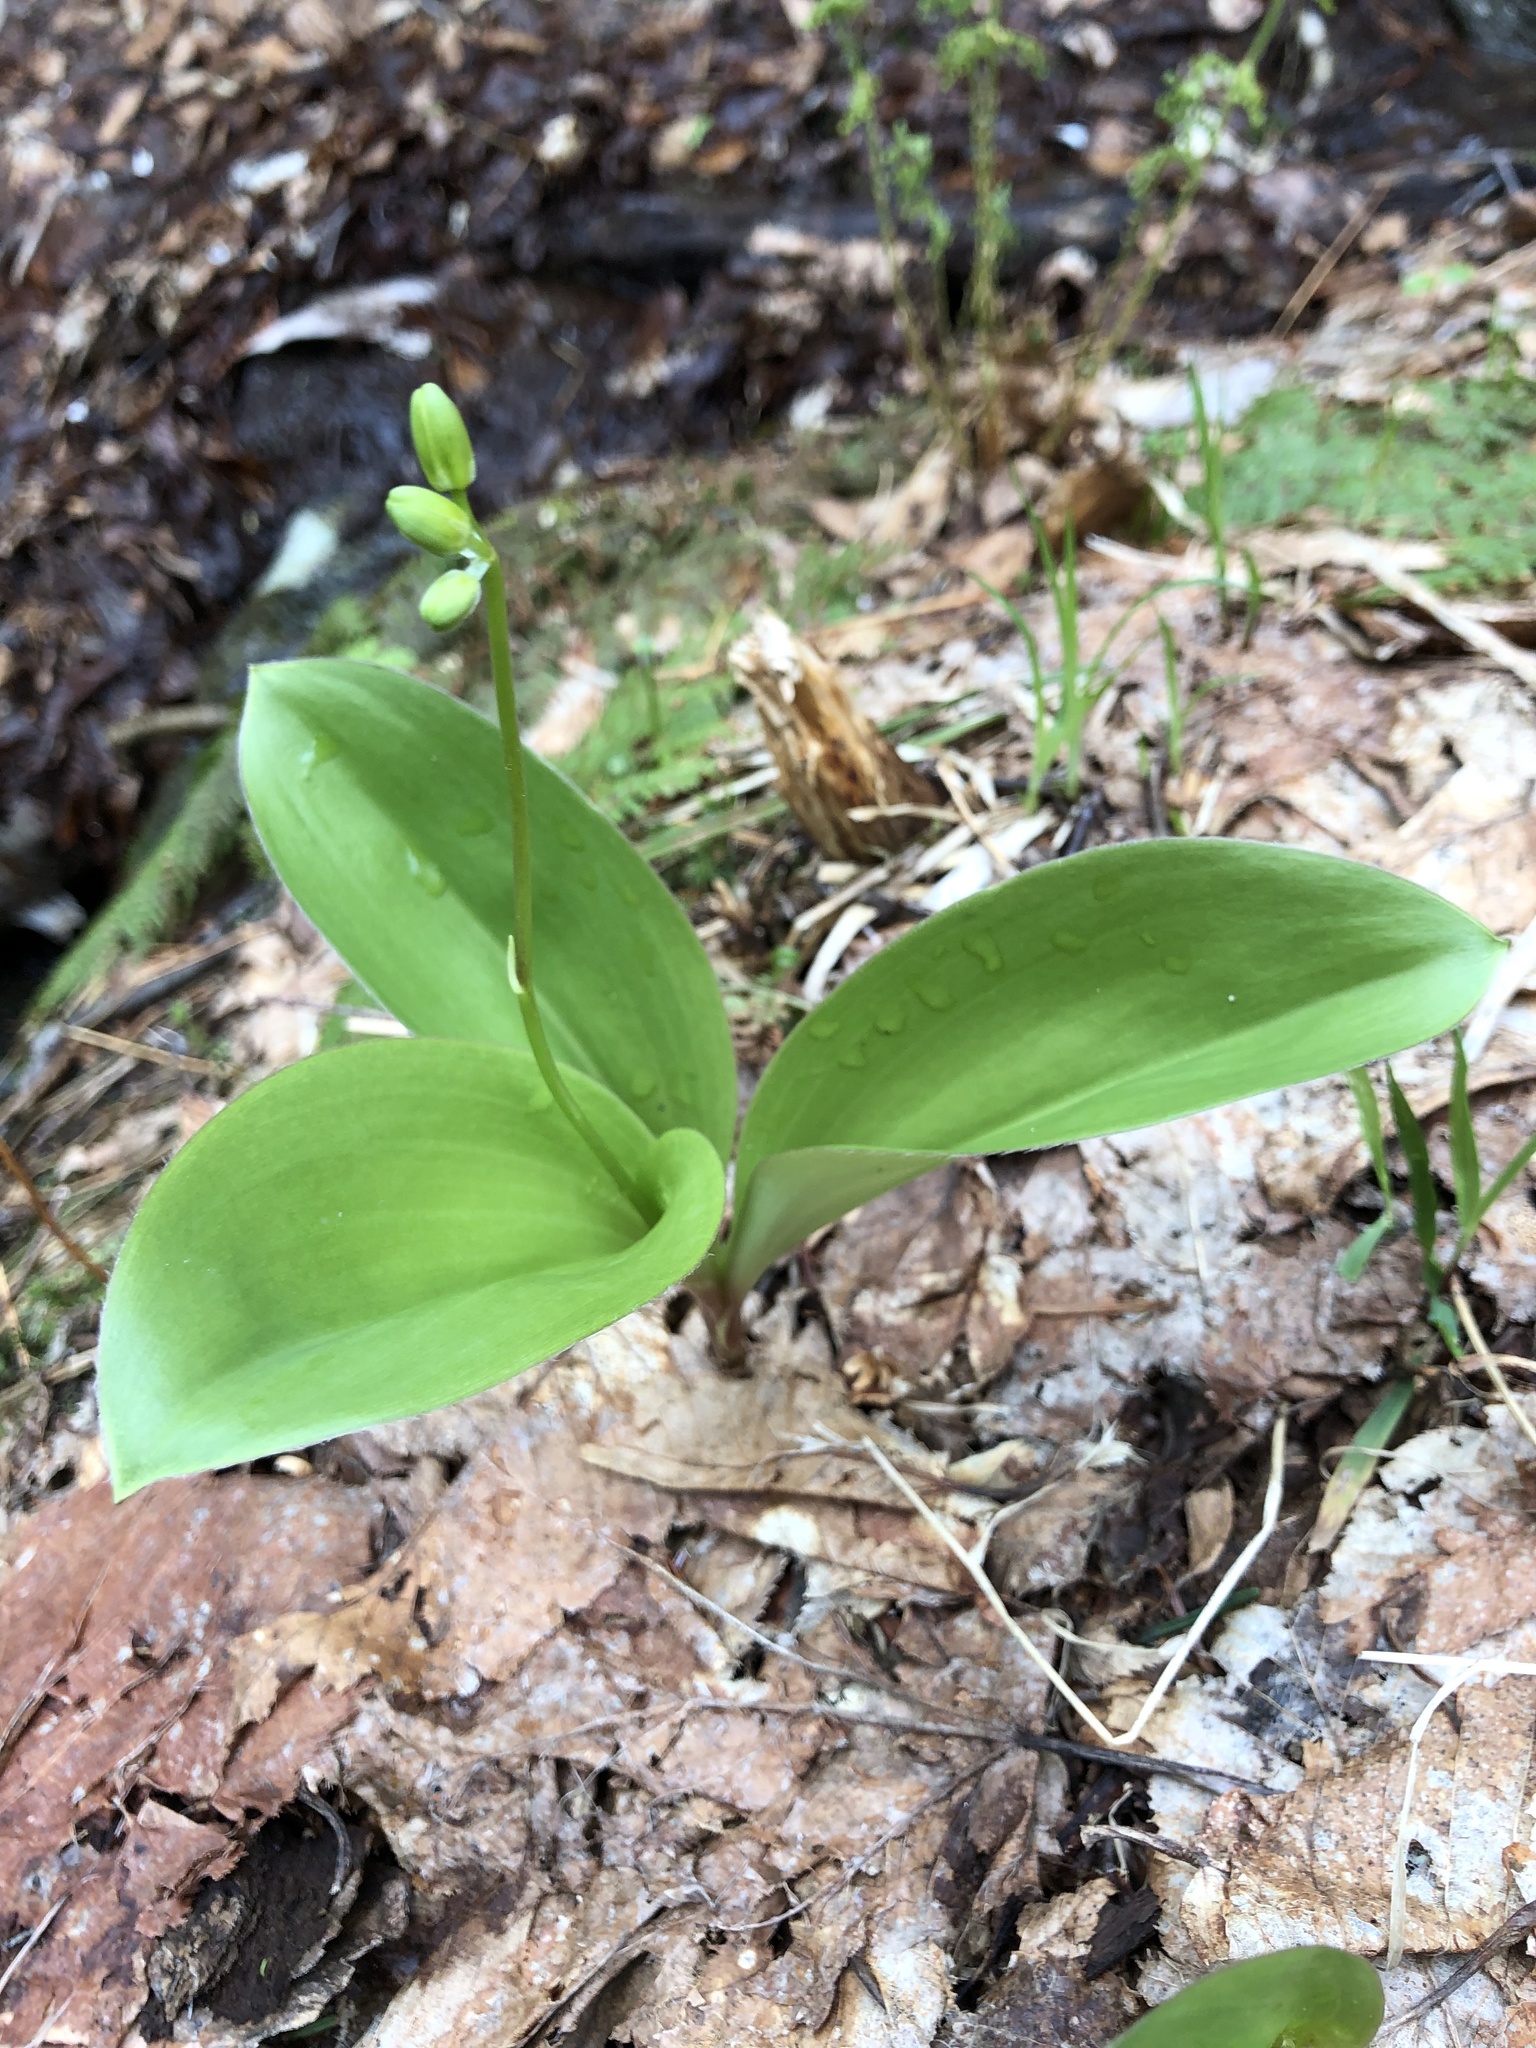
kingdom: Plantae
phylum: Tracheophyta
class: Liliopsida
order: Liliales
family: Liliaceae
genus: Clintonia
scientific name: Clintonia borealis
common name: Yellow clintonia
